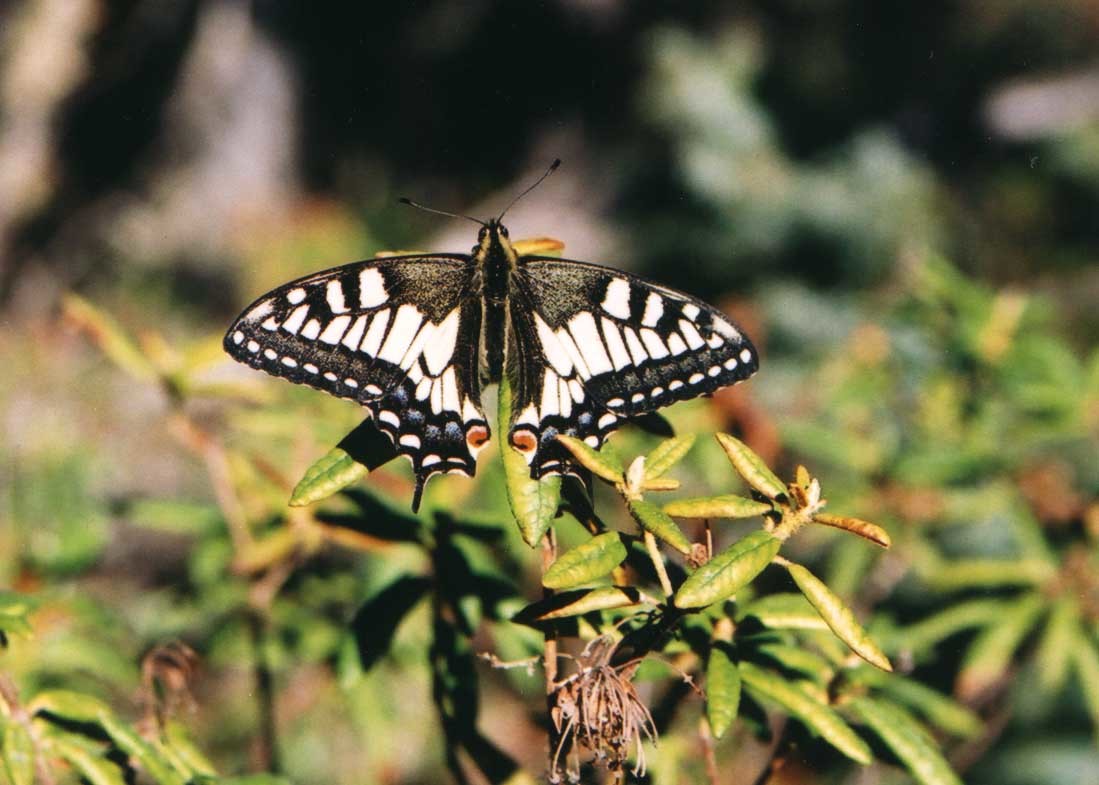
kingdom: Animalia
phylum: Arthropoda
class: Insecta
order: Lepidoptera
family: Papilionidae
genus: Papilio
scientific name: Papilio machaon
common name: Swallowtail
